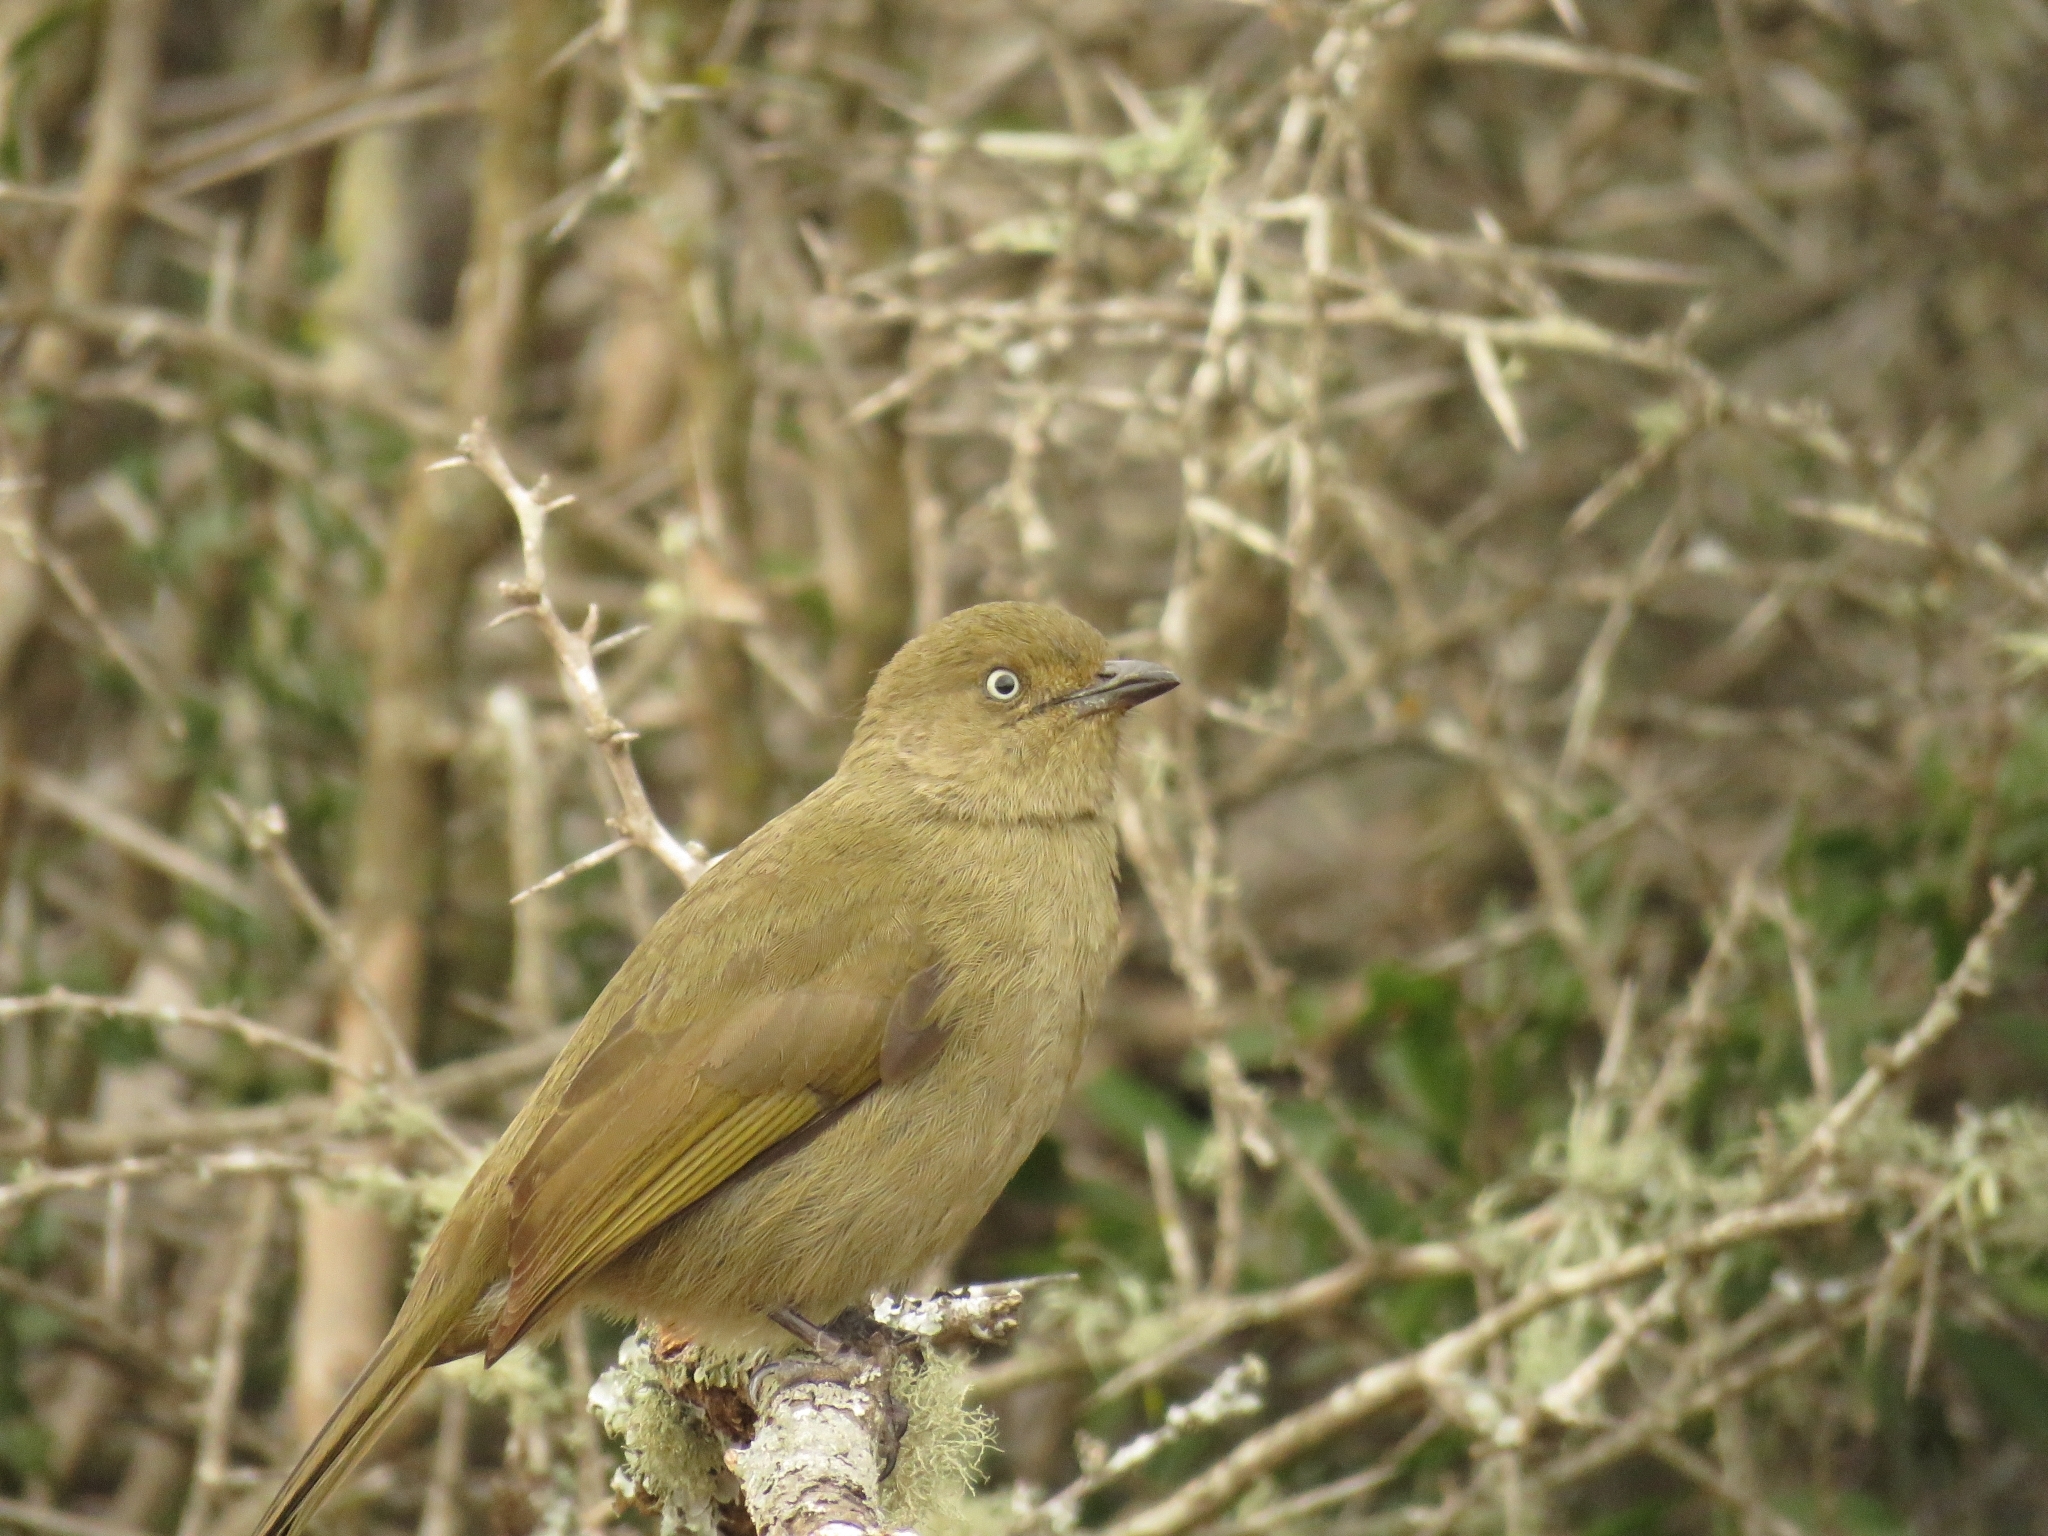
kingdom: Animalia
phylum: Chordata
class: Aves
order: Passeriformes
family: Pycnonotidae
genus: Andropadus
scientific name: Andropadus importunus
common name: Sombre greenbul
